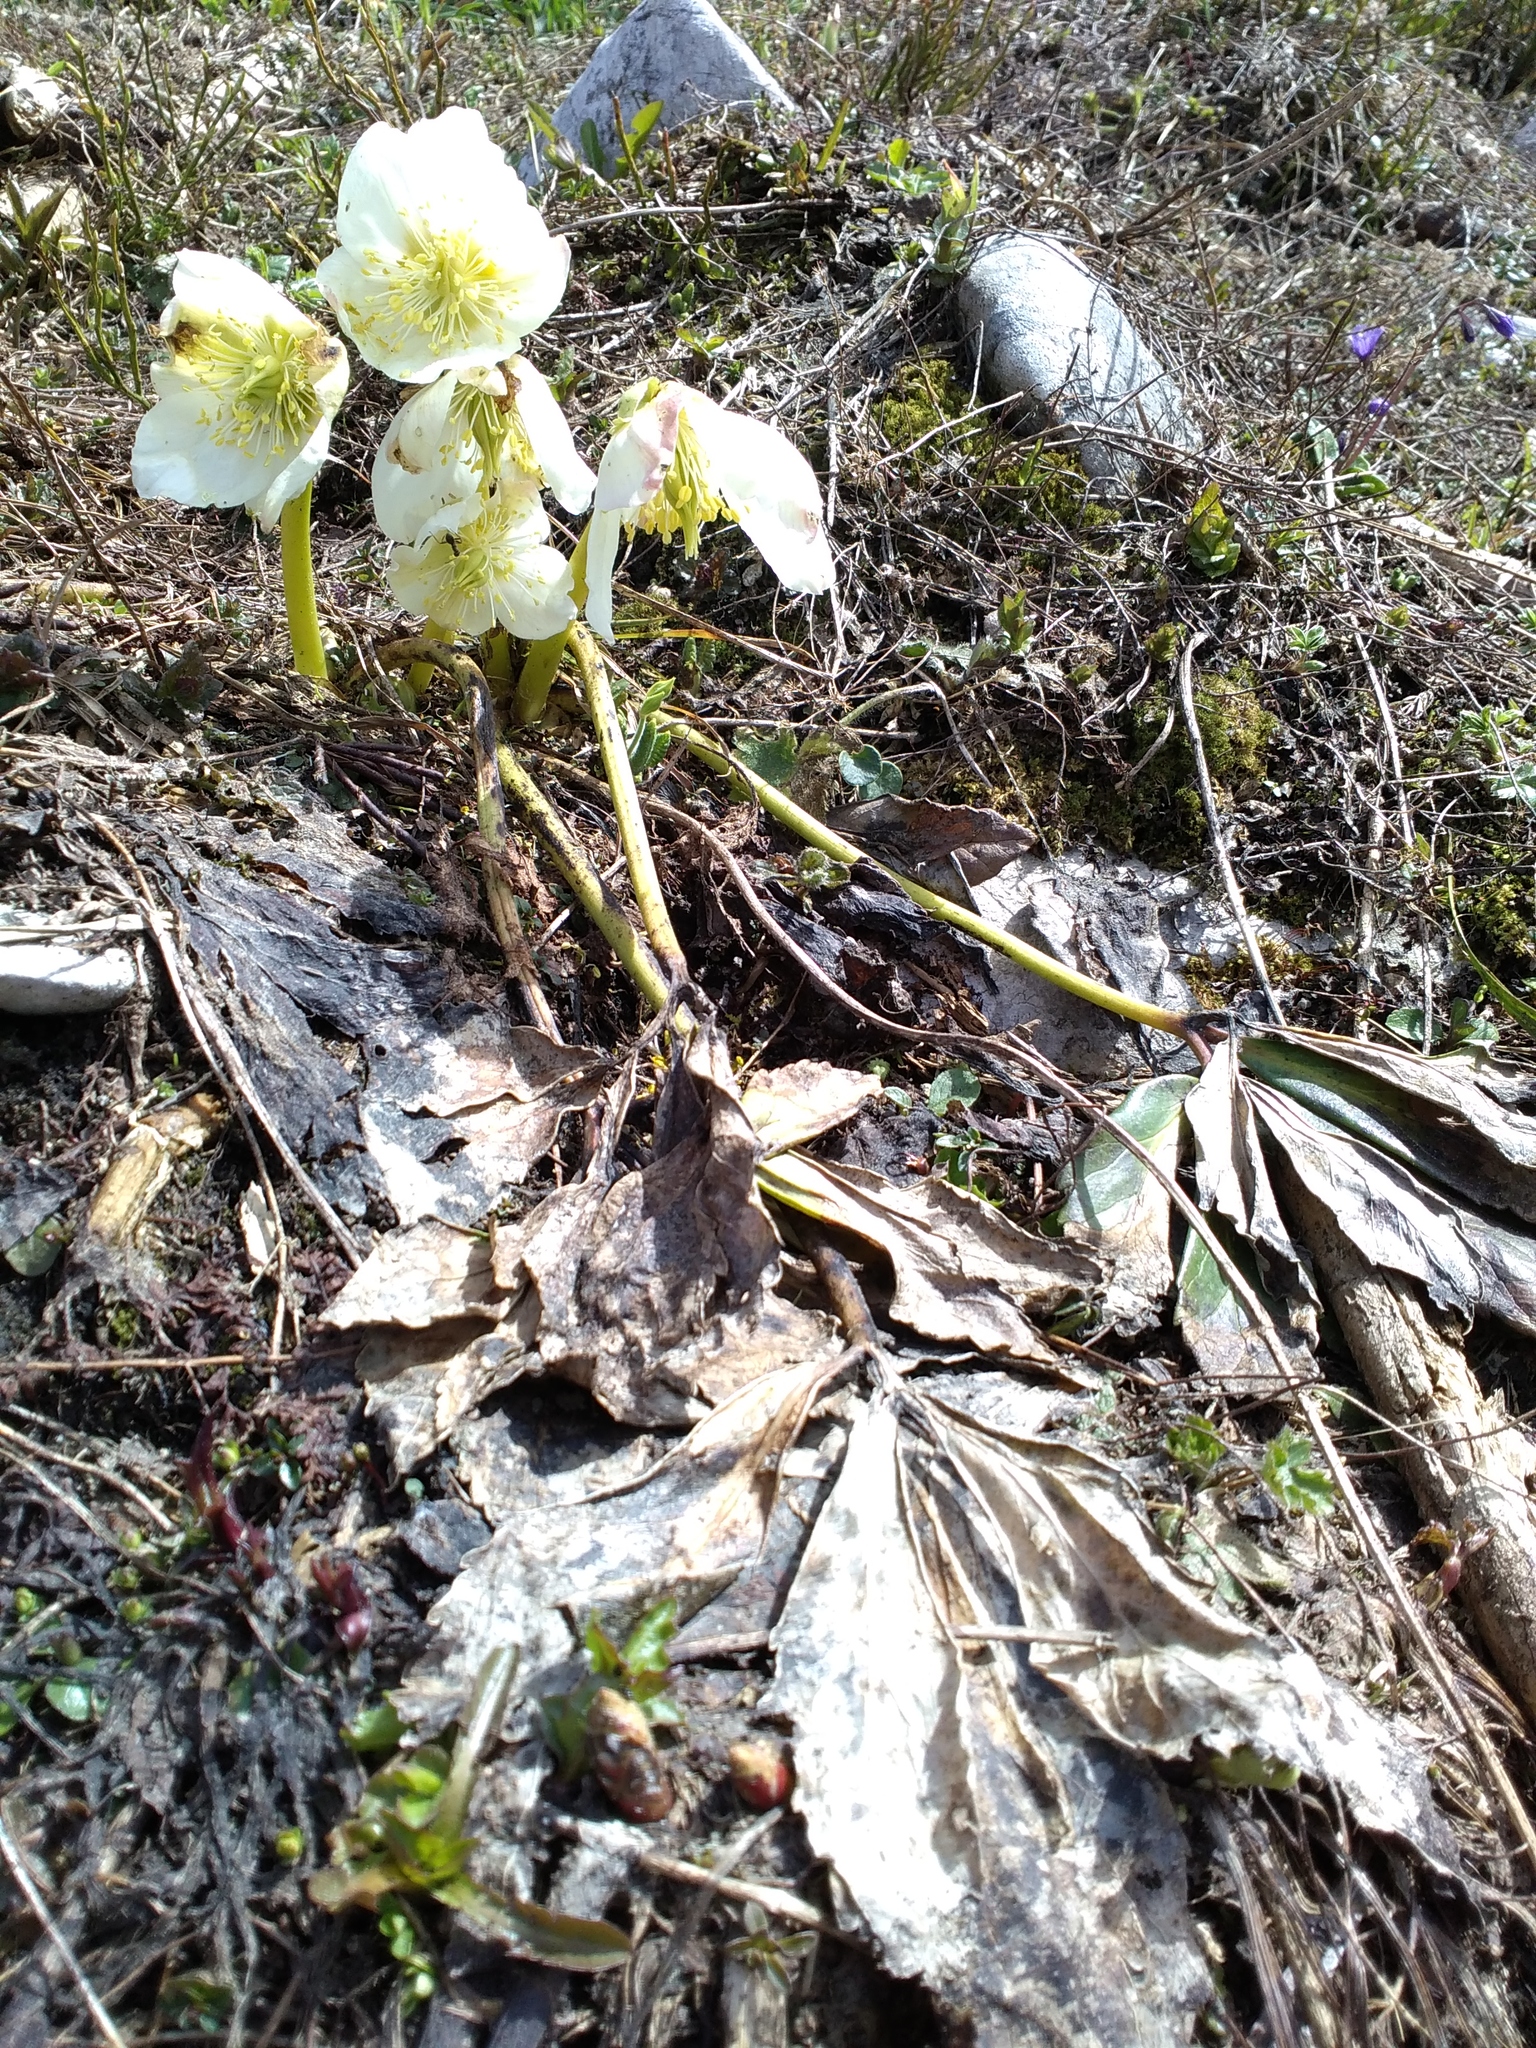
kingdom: Plantae
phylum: Tracheophyta
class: Magnoliopsida
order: Ranunculales
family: Ranunculaceae
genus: Helleborus
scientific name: Helleborus niger
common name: Black hellebore
